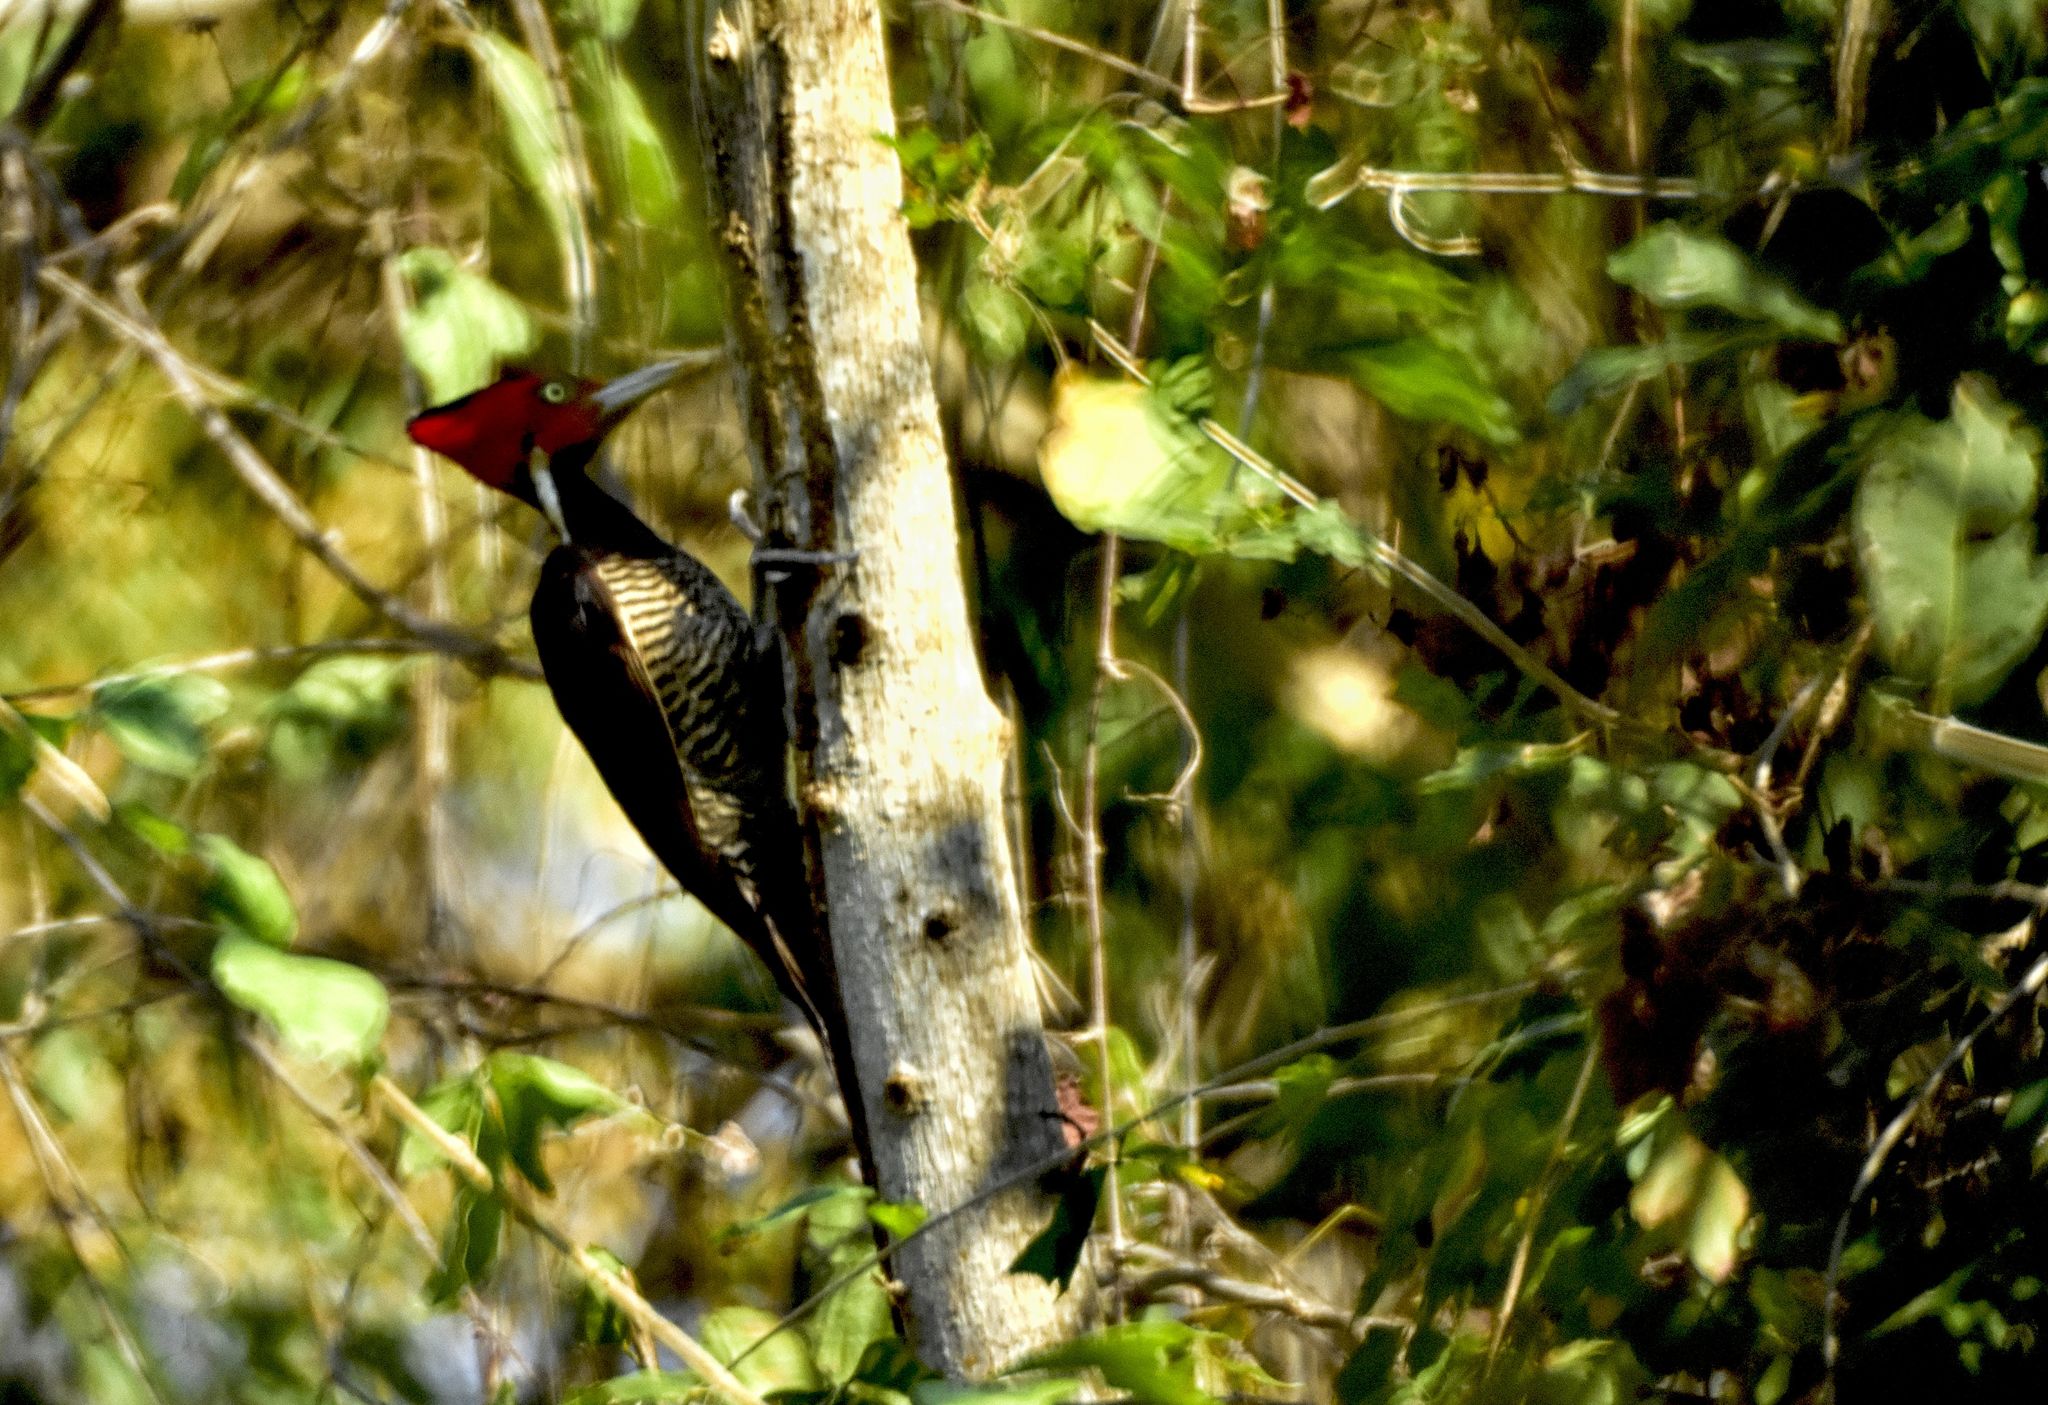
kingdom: Animalia
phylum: Chordata
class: Aves
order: Piciformes
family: Picidae
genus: Campephilus
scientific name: Campephilus guatemalensis
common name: Pale-billed woodpecker
